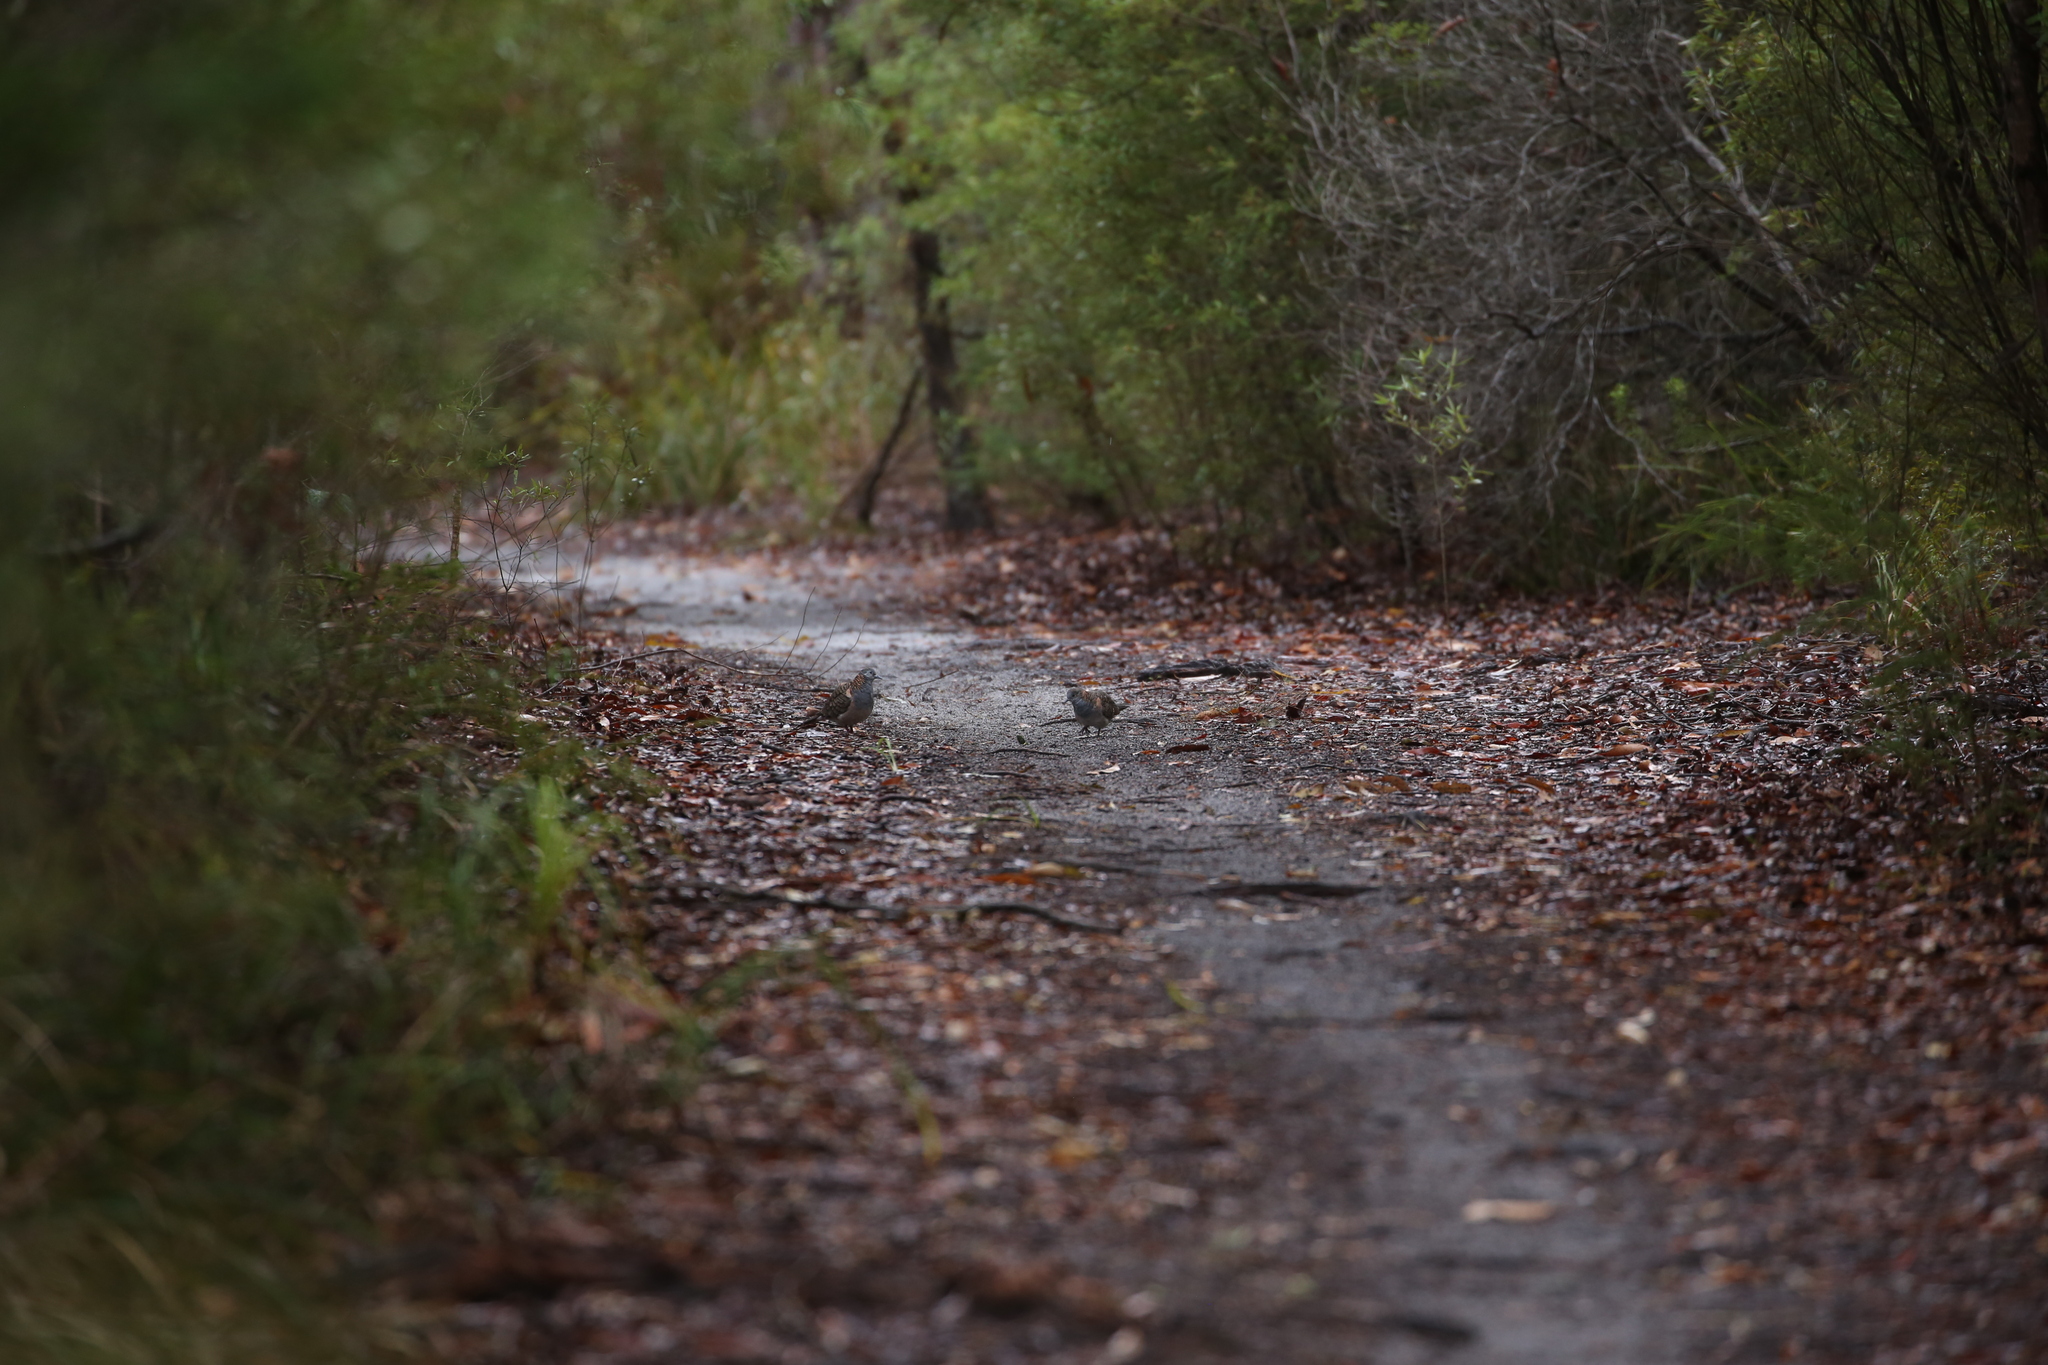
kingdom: Animalia
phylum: Chordata
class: Aves
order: Columbiformes
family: Columbidae
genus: Geopelia
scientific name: Geopelia humeralis
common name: Bar-shouldered dove
